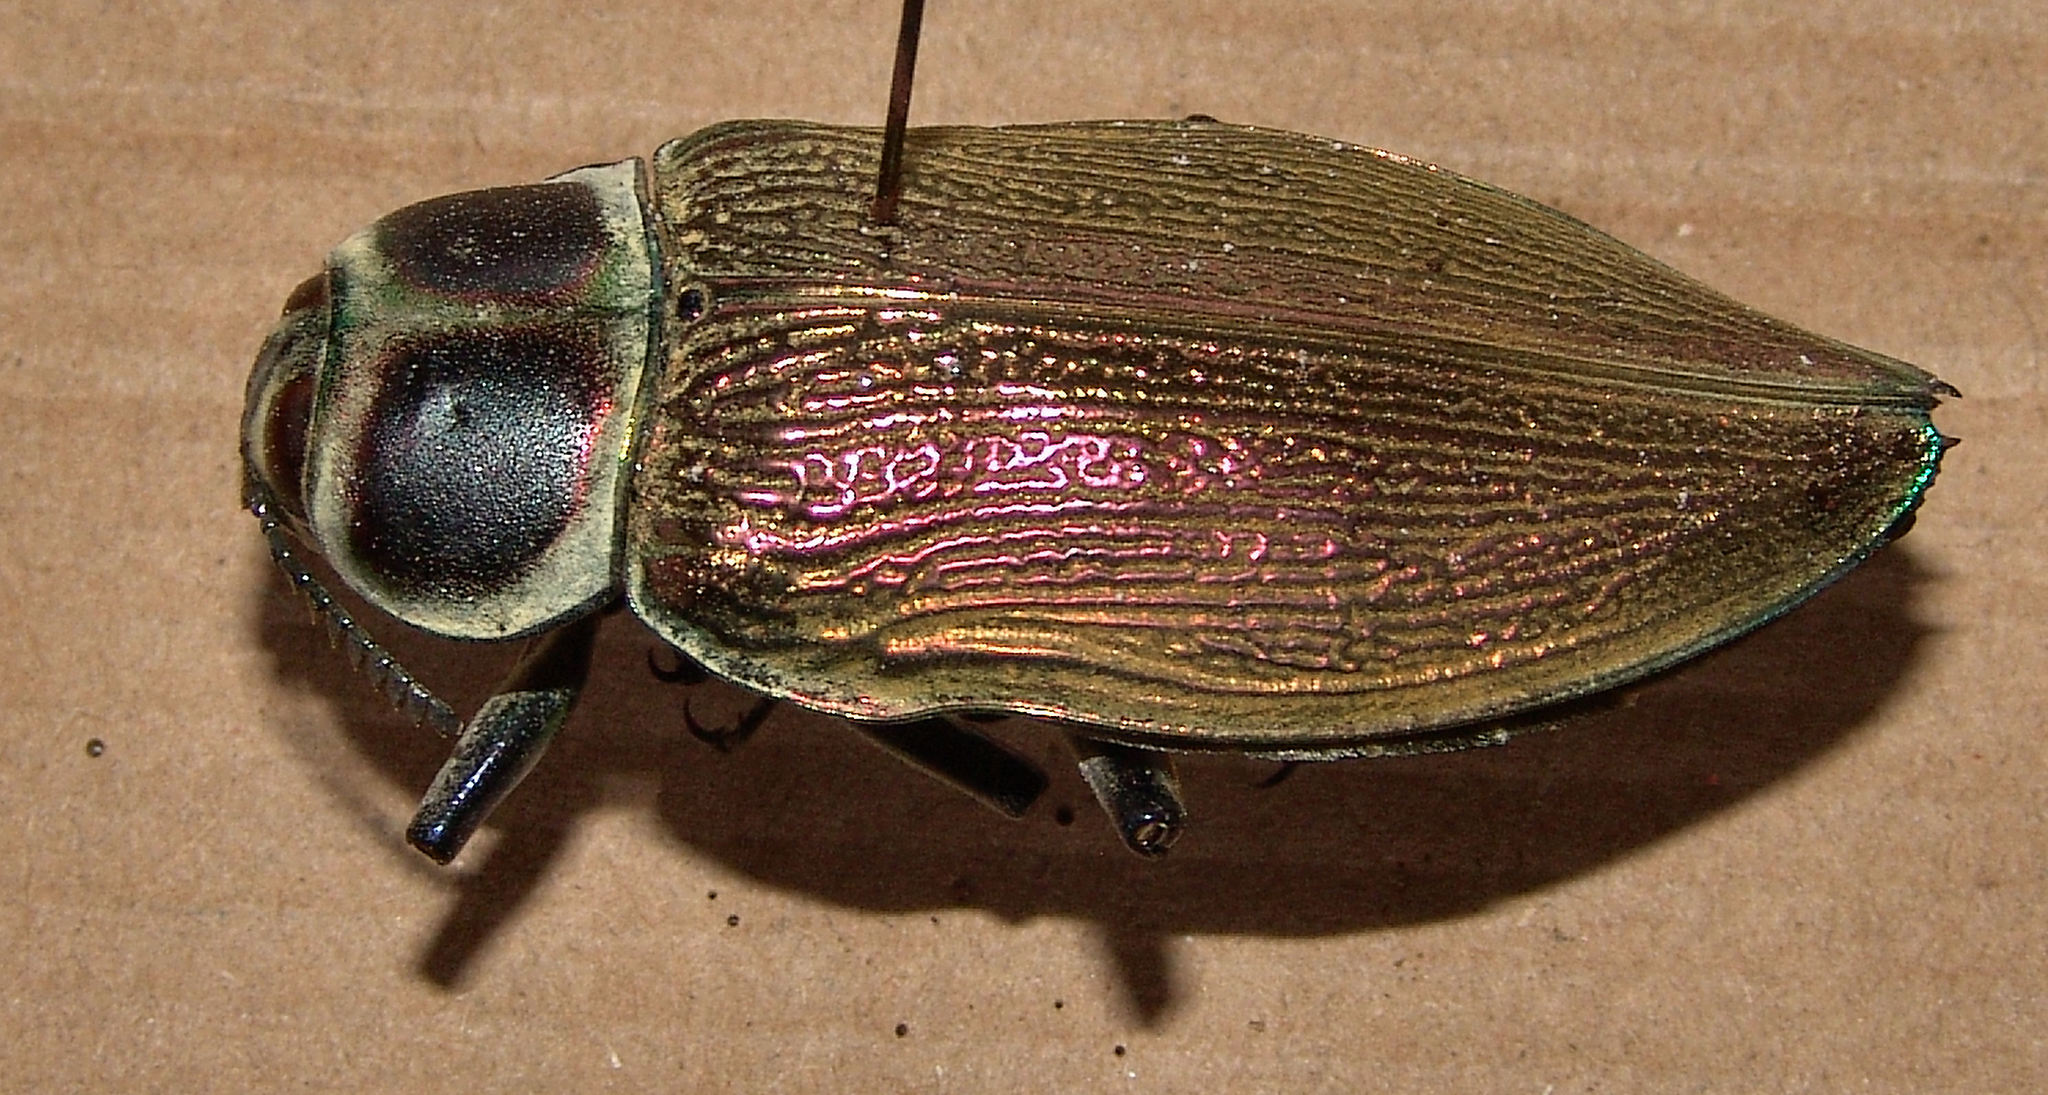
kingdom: Animalia
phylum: Arthropoda
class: Insecta
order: Coleoptera
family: Buprestidae
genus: Euchroma
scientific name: Euchroma giganteum
